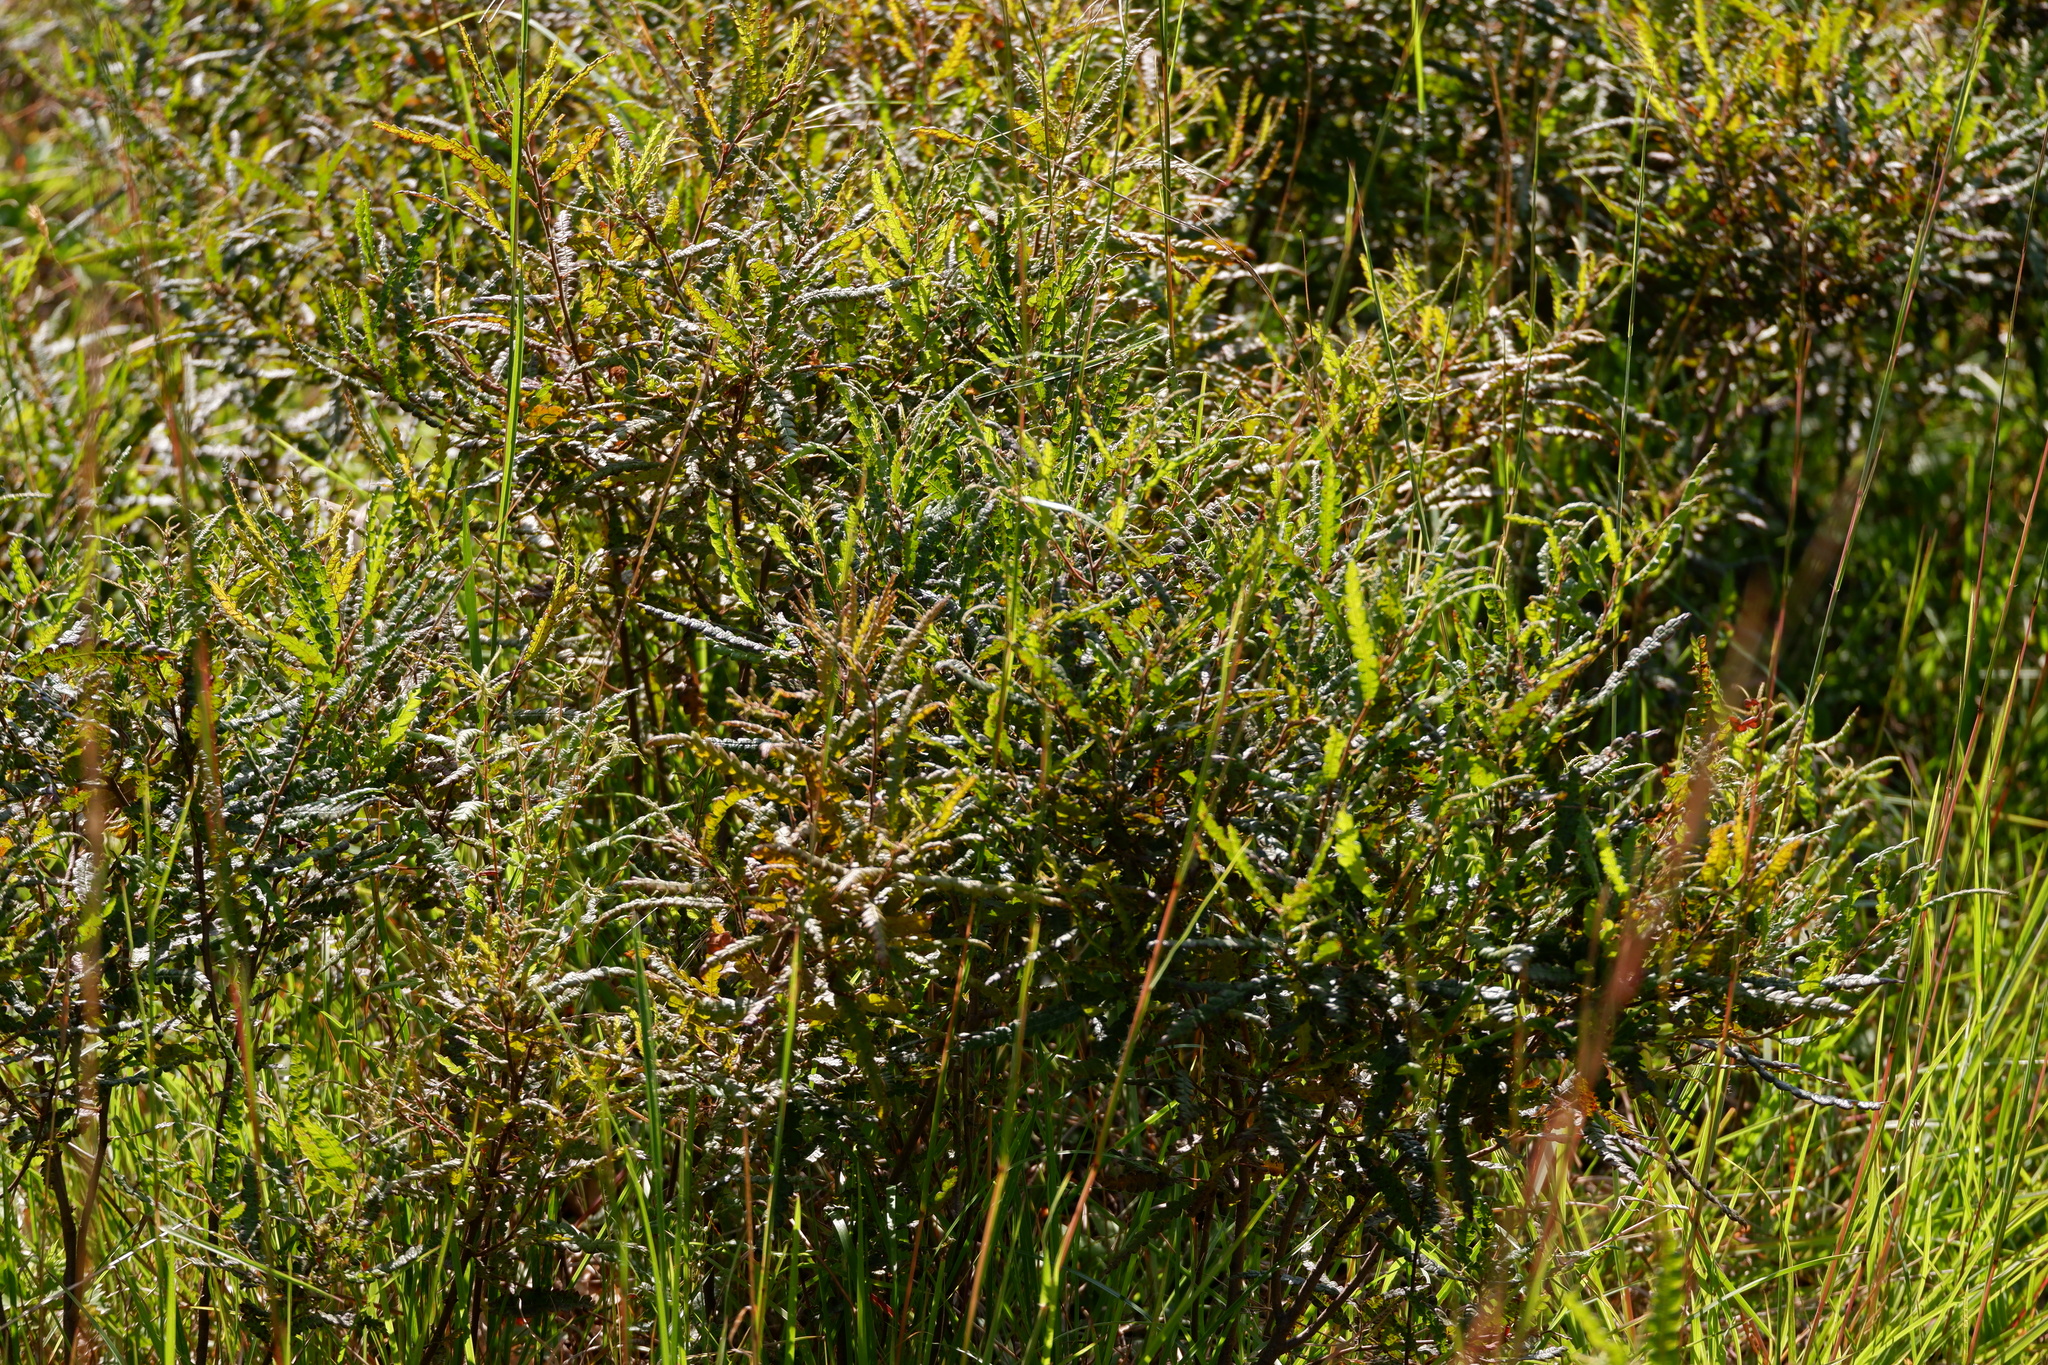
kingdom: Plantae
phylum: Tracheophyta
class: Magnoliopsida
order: Fagales
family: Myricaceae
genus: Comptonia
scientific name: Comptonia peregrina
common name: Sweet-fern
